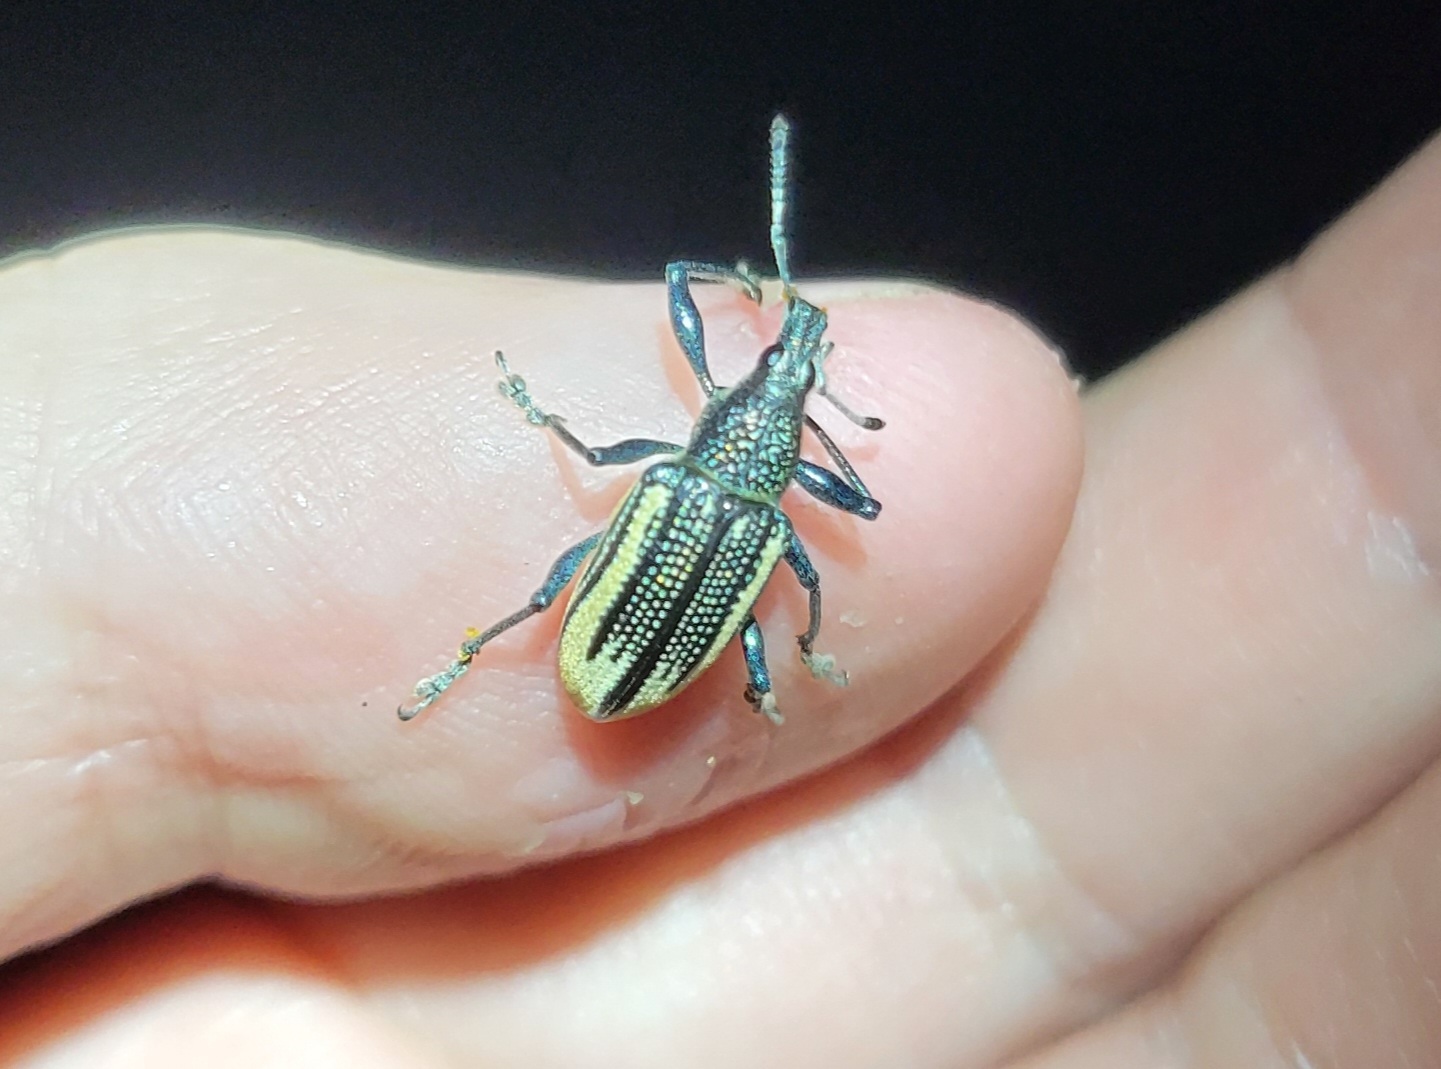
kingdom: Animalia
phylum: Arthropoda
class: Insecta
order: Coleoptera
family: Curculionidae
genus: Diaprepes
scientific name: Diaprepes abbreviatus
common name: Root weevil
